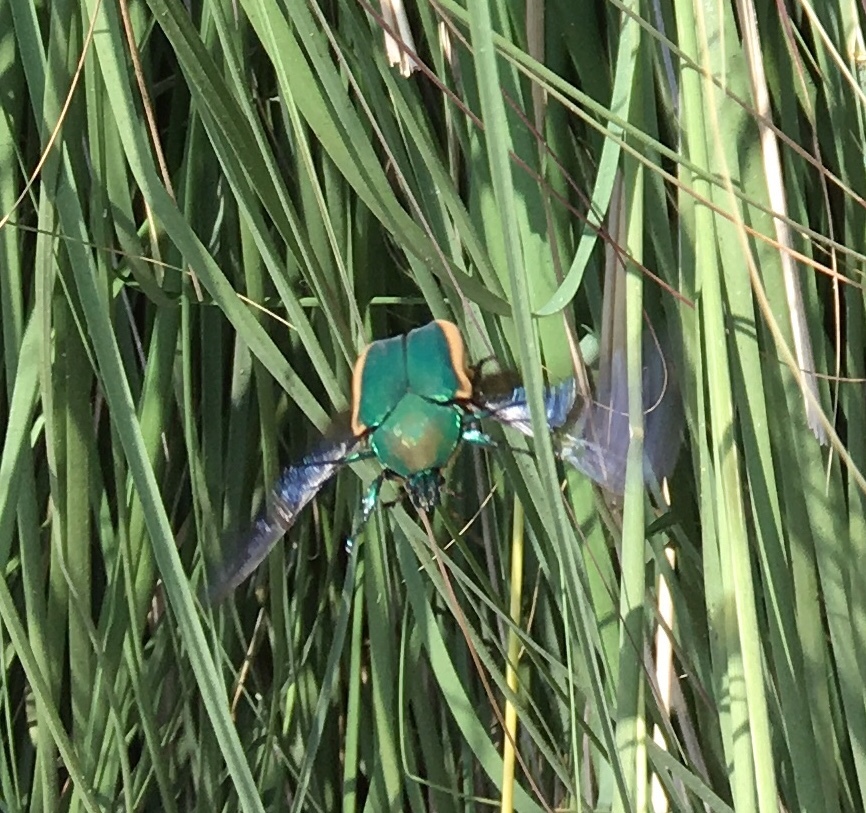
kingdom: Animalia
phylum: Arthropoda
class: Insecta
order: Coleoptera
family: Scarabaeidae
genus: Cotinis
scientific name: Cotinis mutabilis
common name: Figeater beetle
